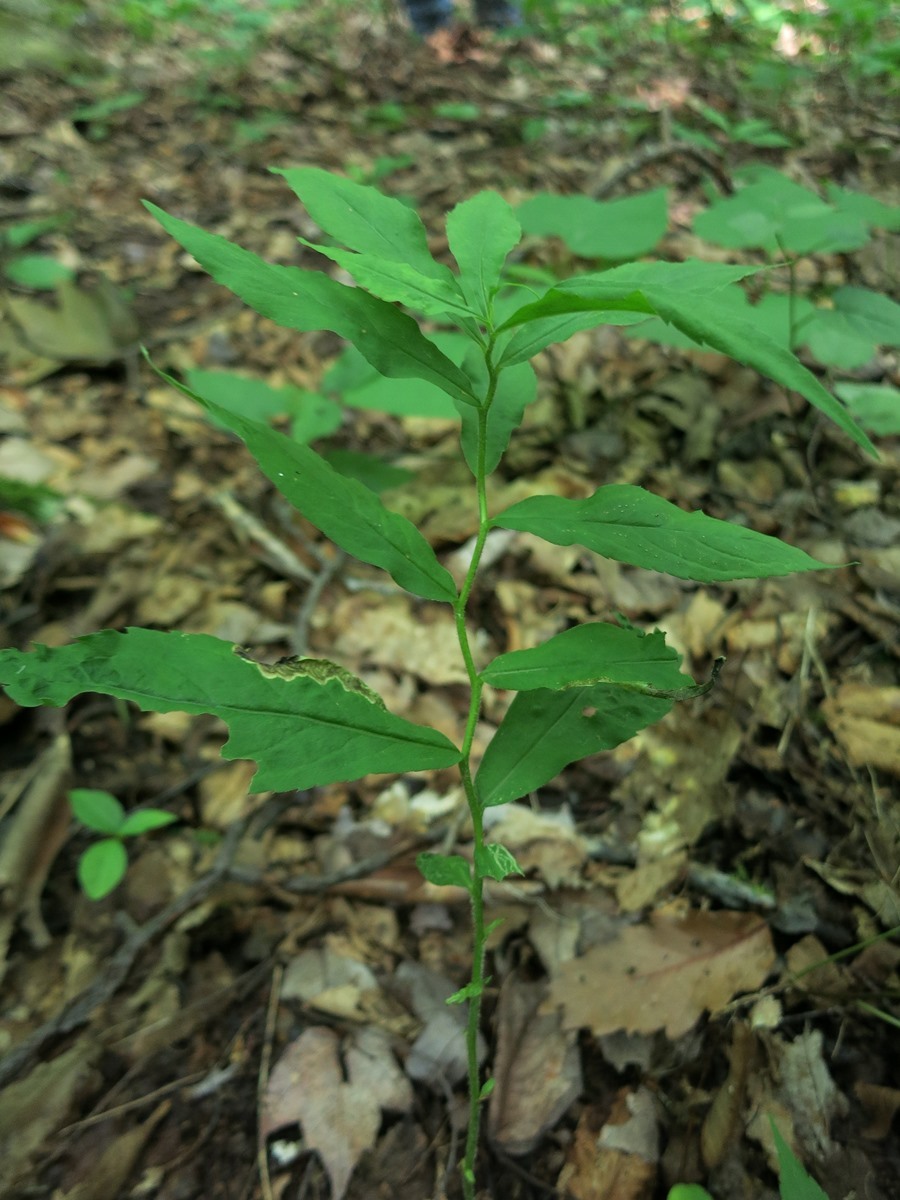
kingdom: Plantae
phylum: Tracheophyta
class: Magnoliopsida
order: Asterales
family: Asteraceae
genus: Solidago
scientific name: Solidago flexicaulis
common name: Zig-zag goldenrod
